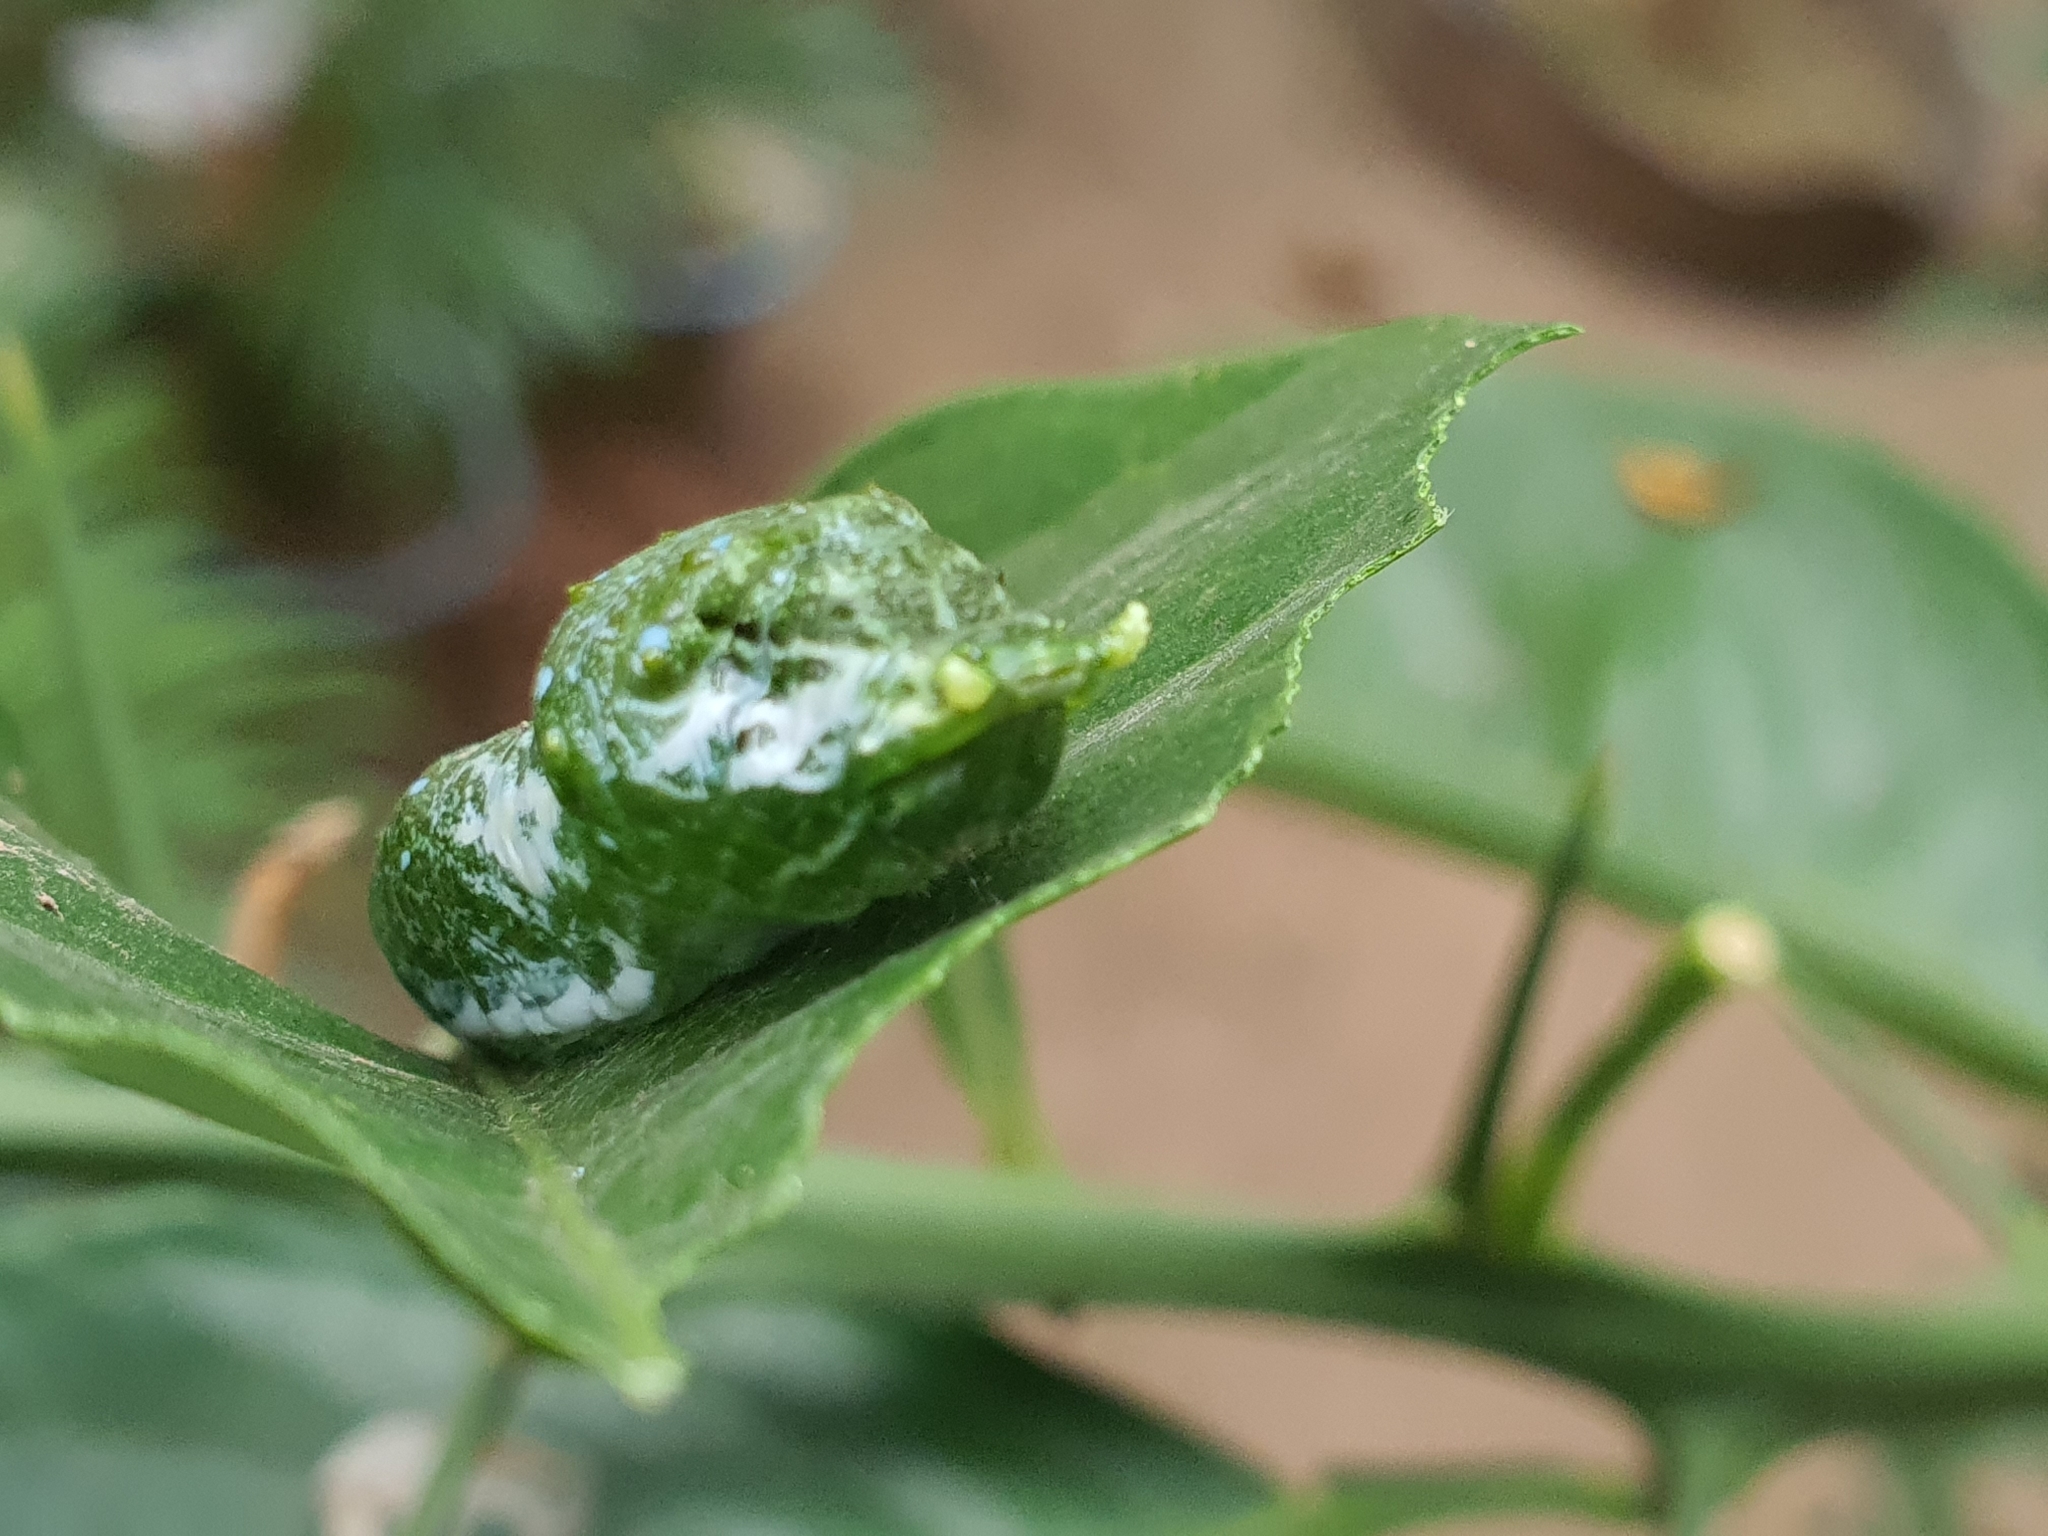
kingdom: Animalia
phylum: Arthropoda
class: Insecta
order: Lepidoptera
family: Papilionidae
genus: Papilio
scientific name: Papilio demoleus
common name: Lime butterfly
